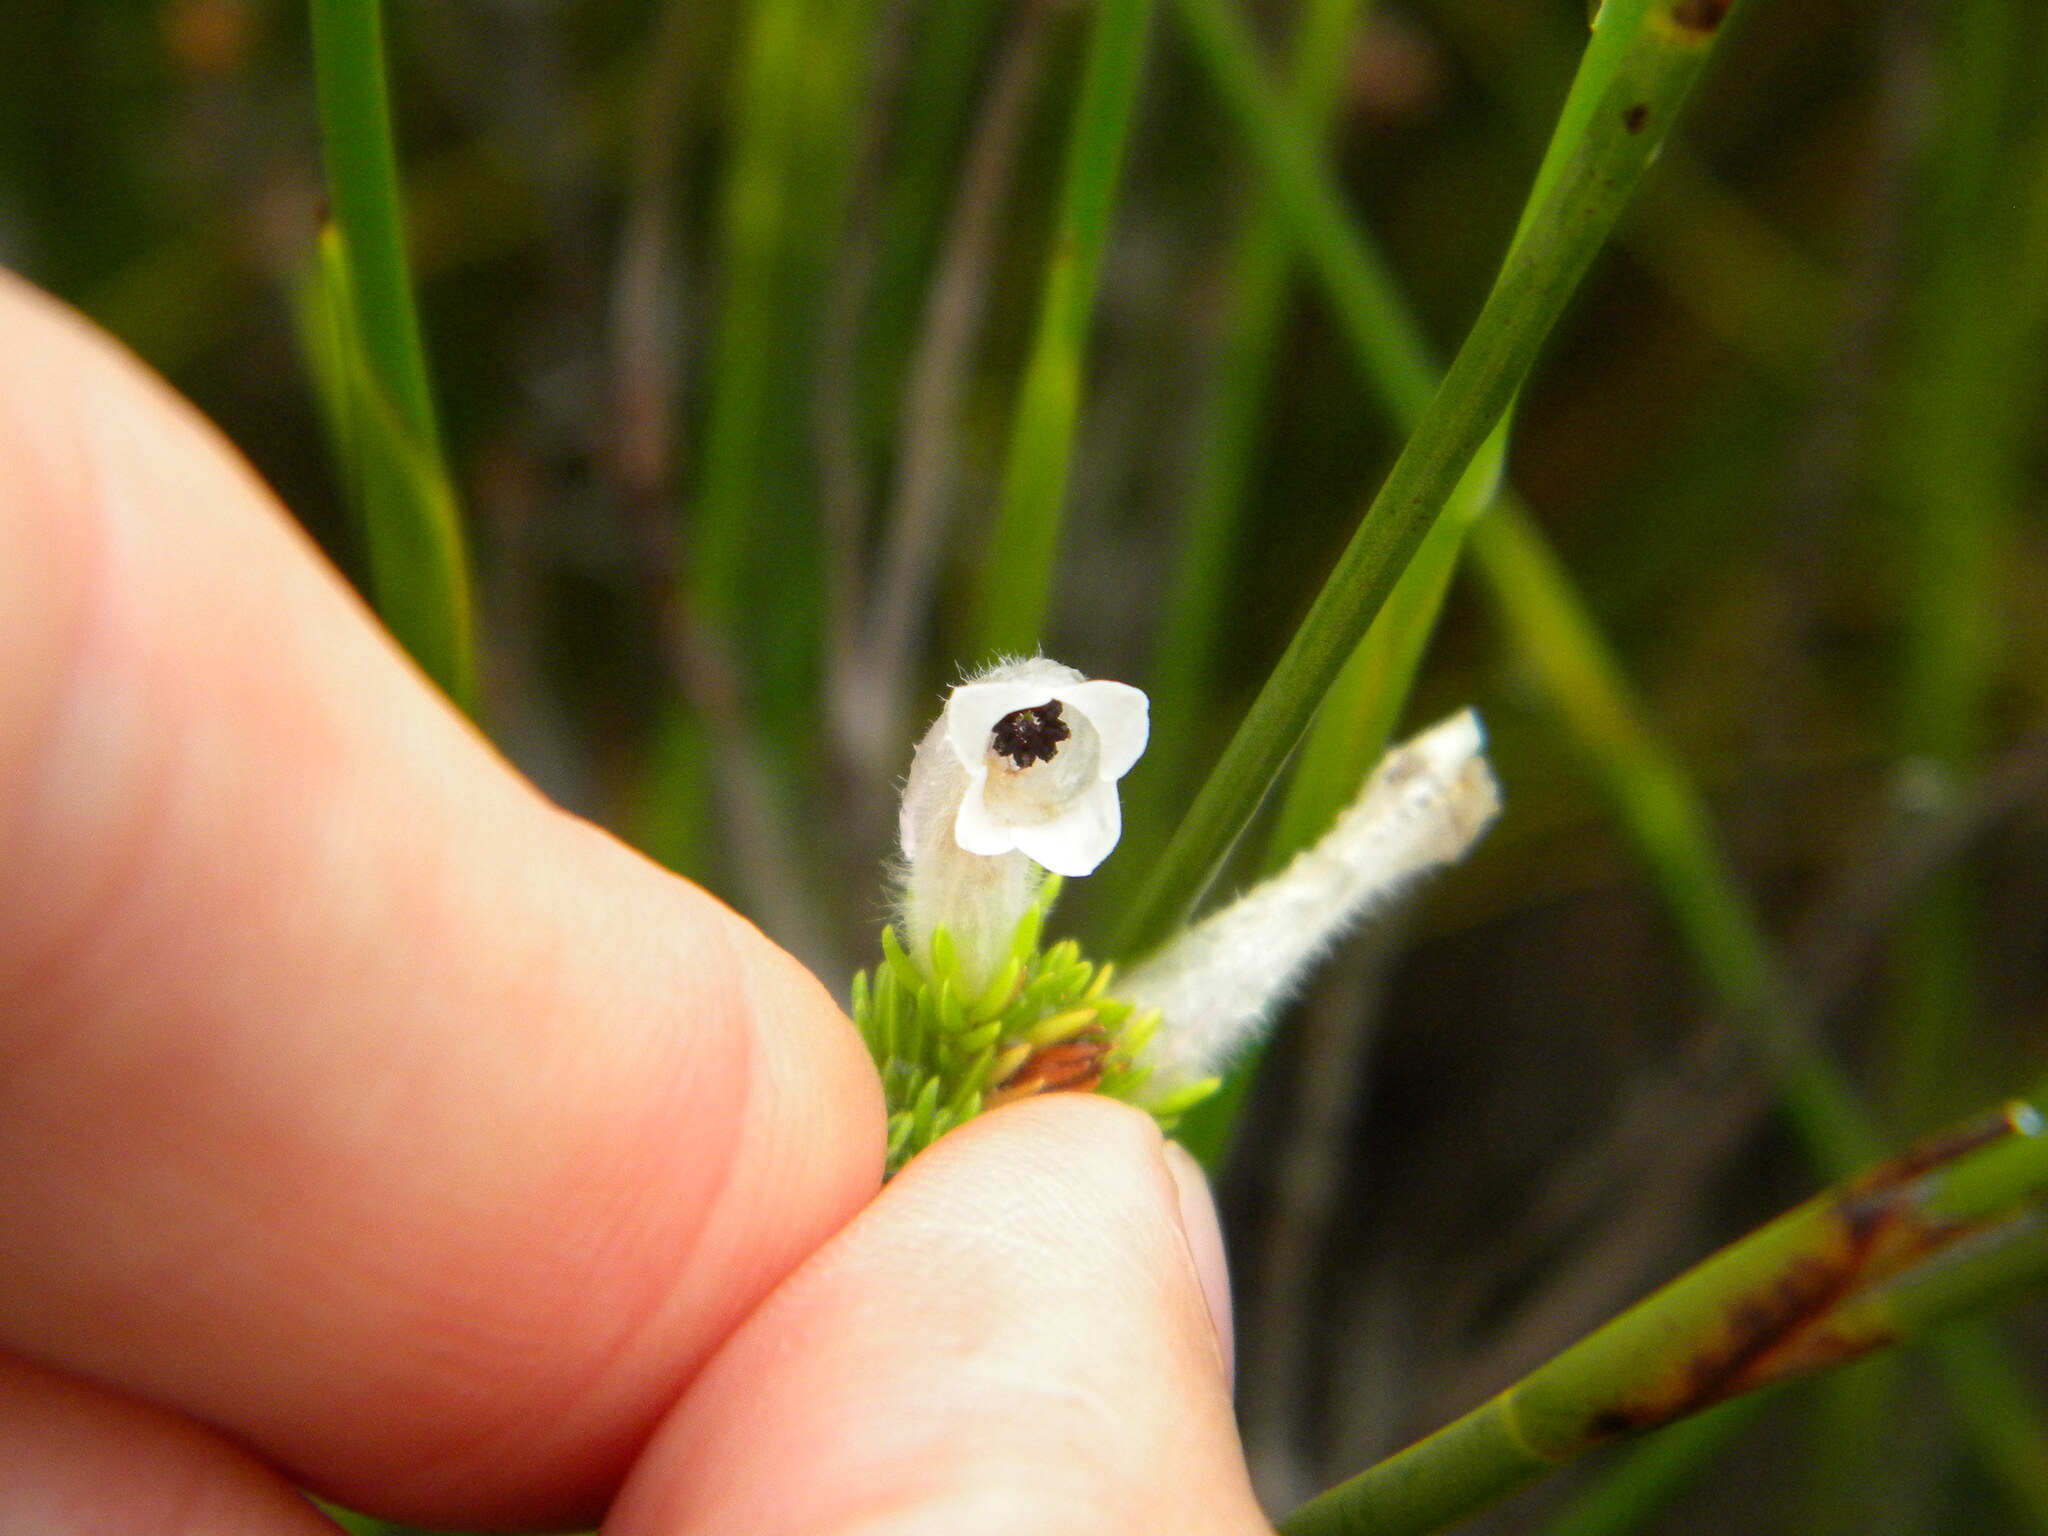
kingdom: Plantae
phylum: Tracheophyta
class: Magnoliopsida
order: Ericales
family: Ericaceae
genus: Erica
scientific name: Erica perspicua
